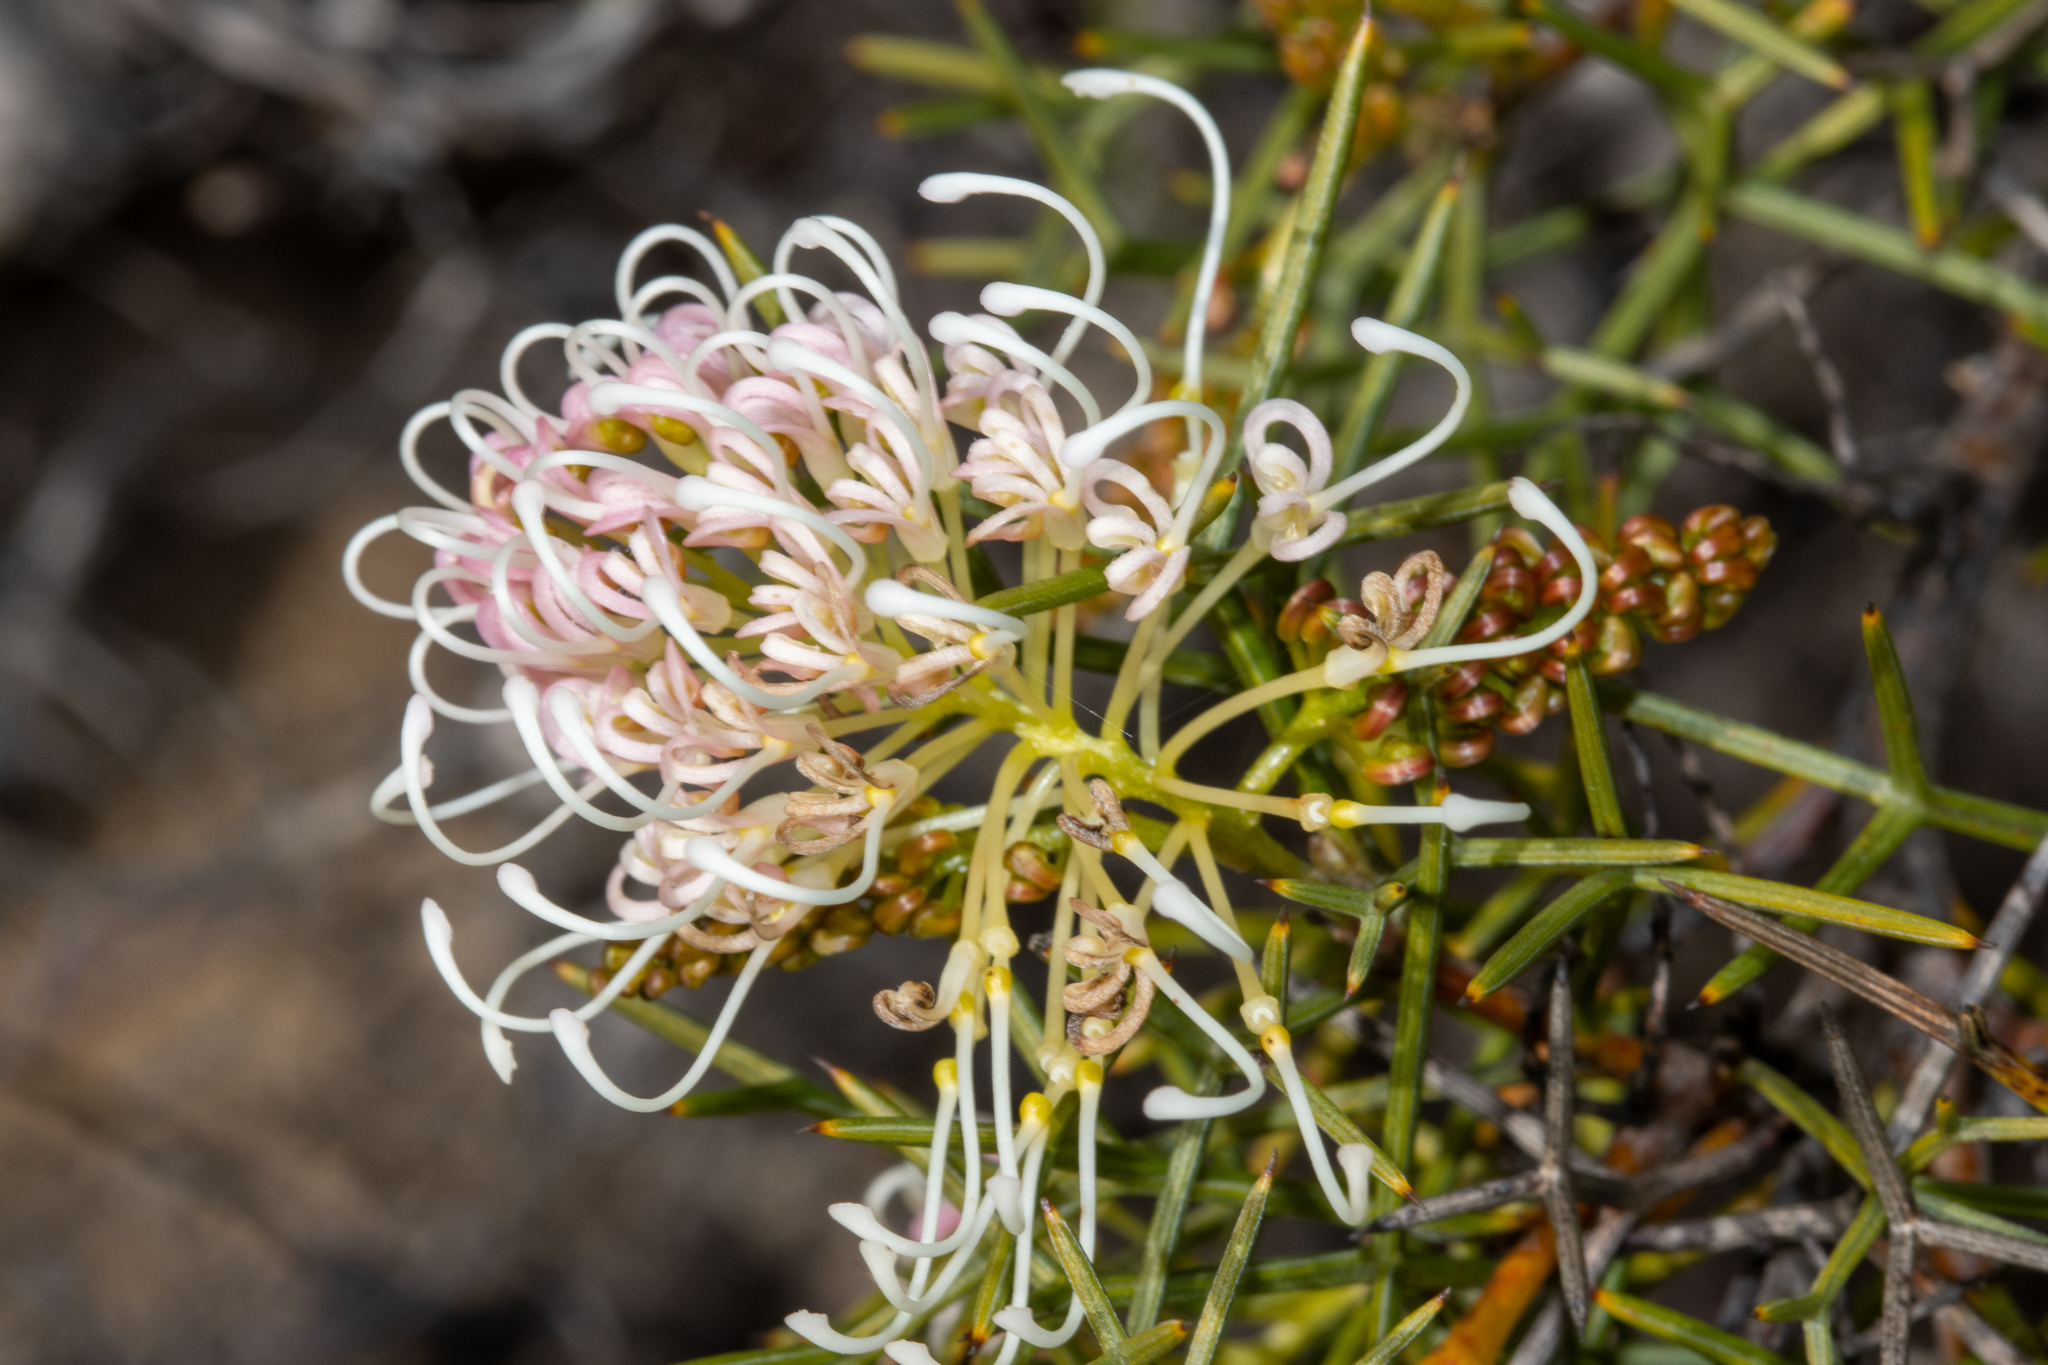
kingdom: Plantae
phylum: Tracheophyta
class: Magnoliopsida
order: Proteales
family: Proteaceae
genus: Grevillea
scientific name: Grevillea teretifolia
